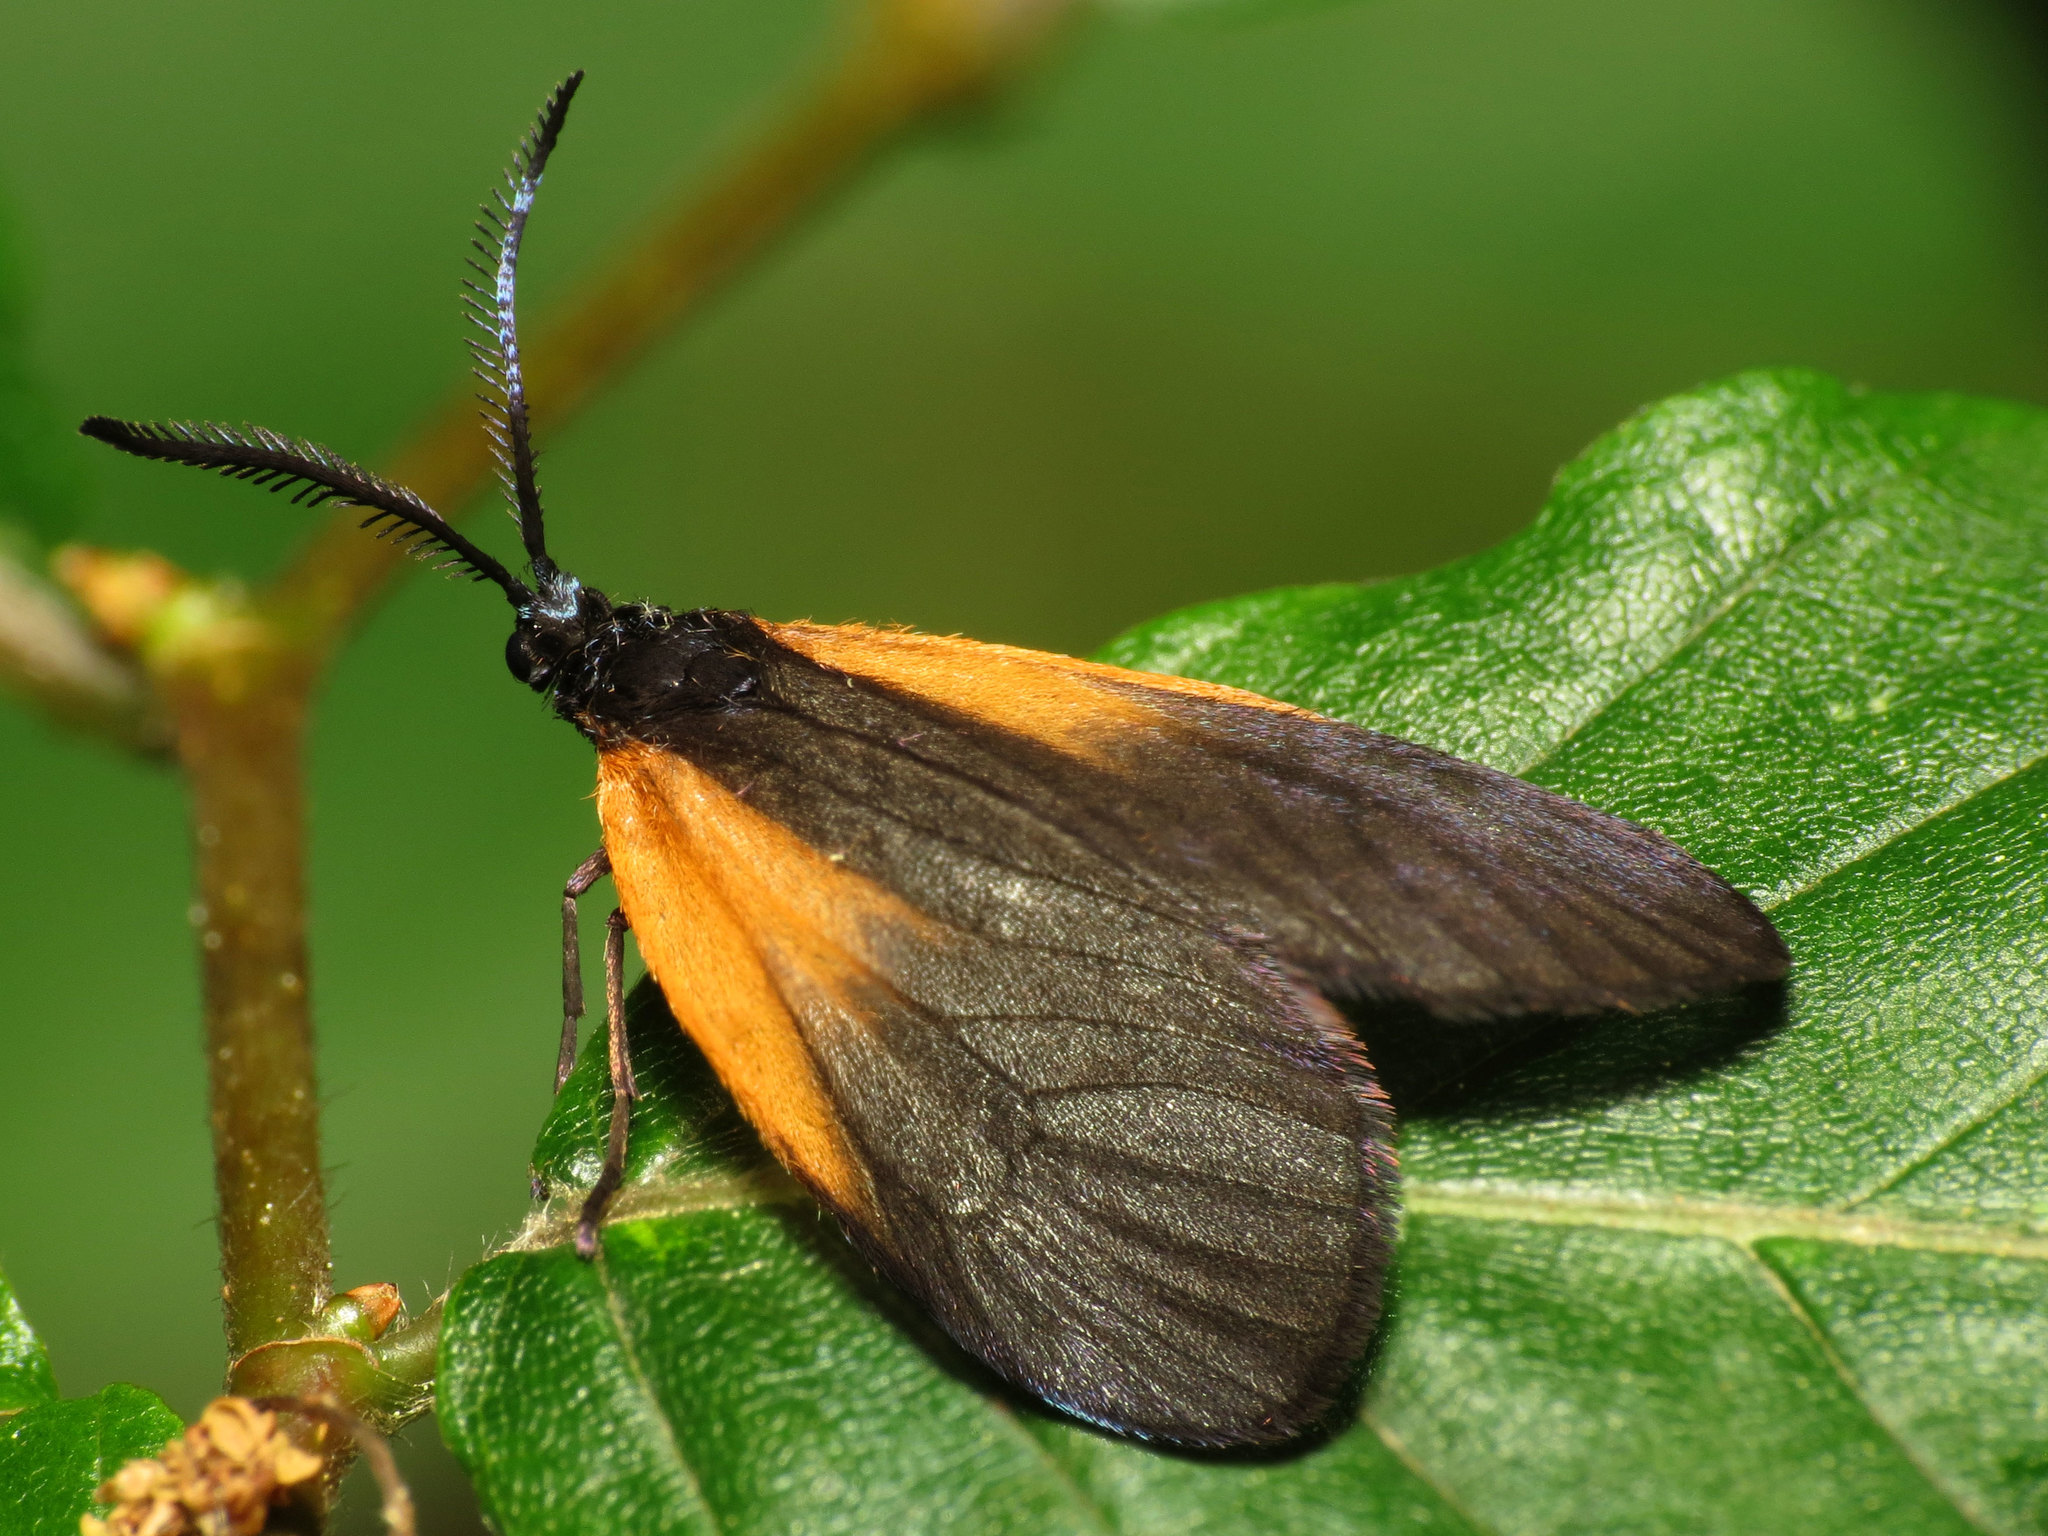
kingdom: Animalia
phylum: Arthropoda
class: Insecta
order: Lepidoptera
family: Zygaenidae
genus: Malthaca
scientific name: Malthaca dimidiata
